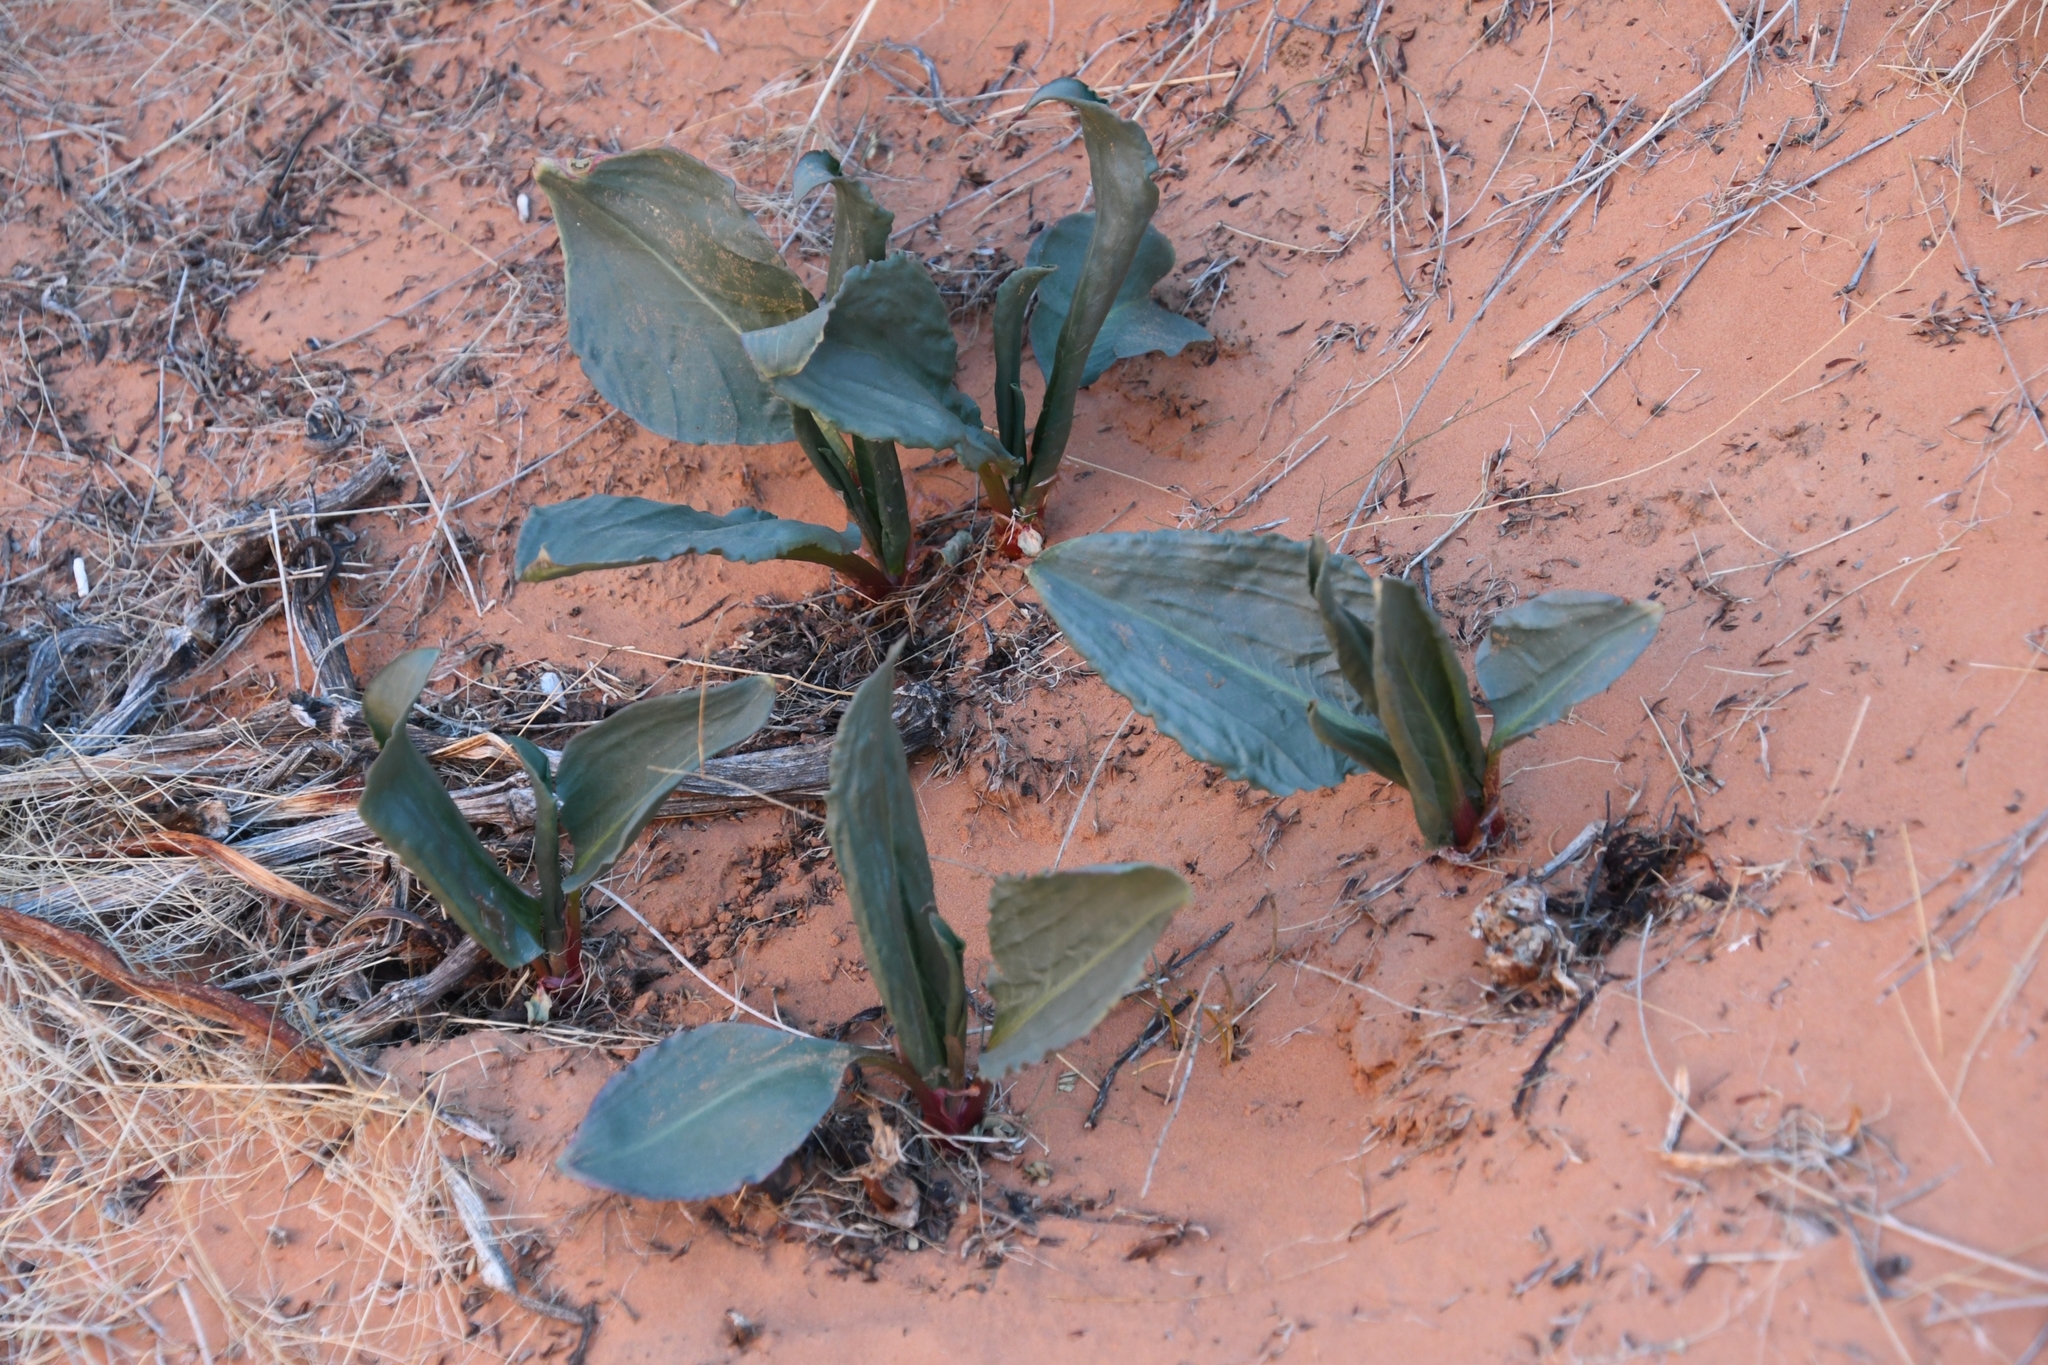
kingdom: Plantae
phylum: Tracheophyta
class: Magnoliopsida
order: Caryophyllales
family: Polygonaceae
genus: Rumex
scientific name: Rumex hymenosepalus
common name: Ganagra
